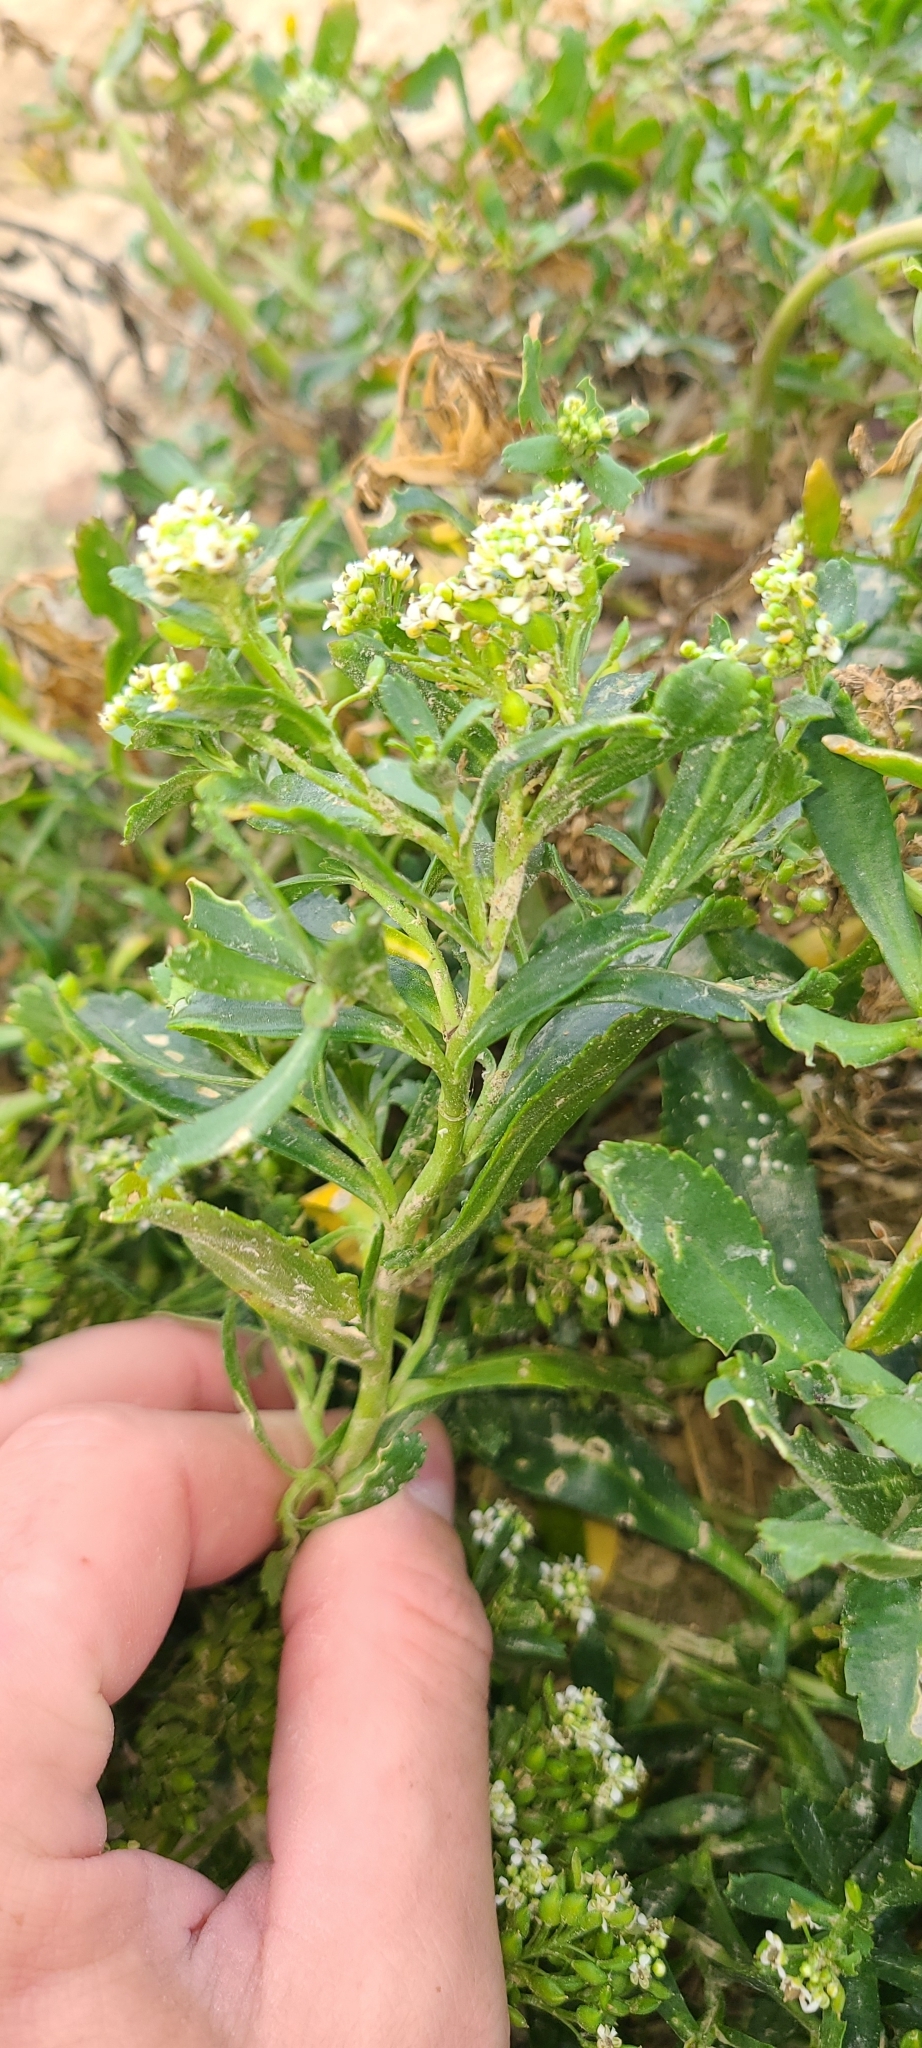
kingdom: Plantae
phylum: Tracheophyta
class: Magnoliopsida
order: Brassicales
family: Brassicaceae
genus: Lepidium
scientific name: Lepidium crassum
